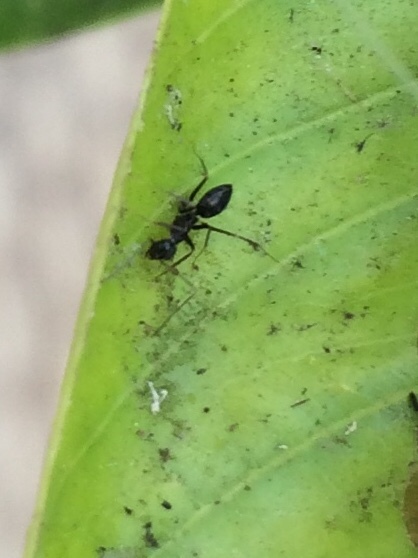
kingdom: Animalia
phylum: Arthropoda
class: Insecta
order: Hymenoptera
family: Formicidae
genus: Paratrechina
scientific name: Paratrechina longicornis
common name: Longhorned crazy ant
